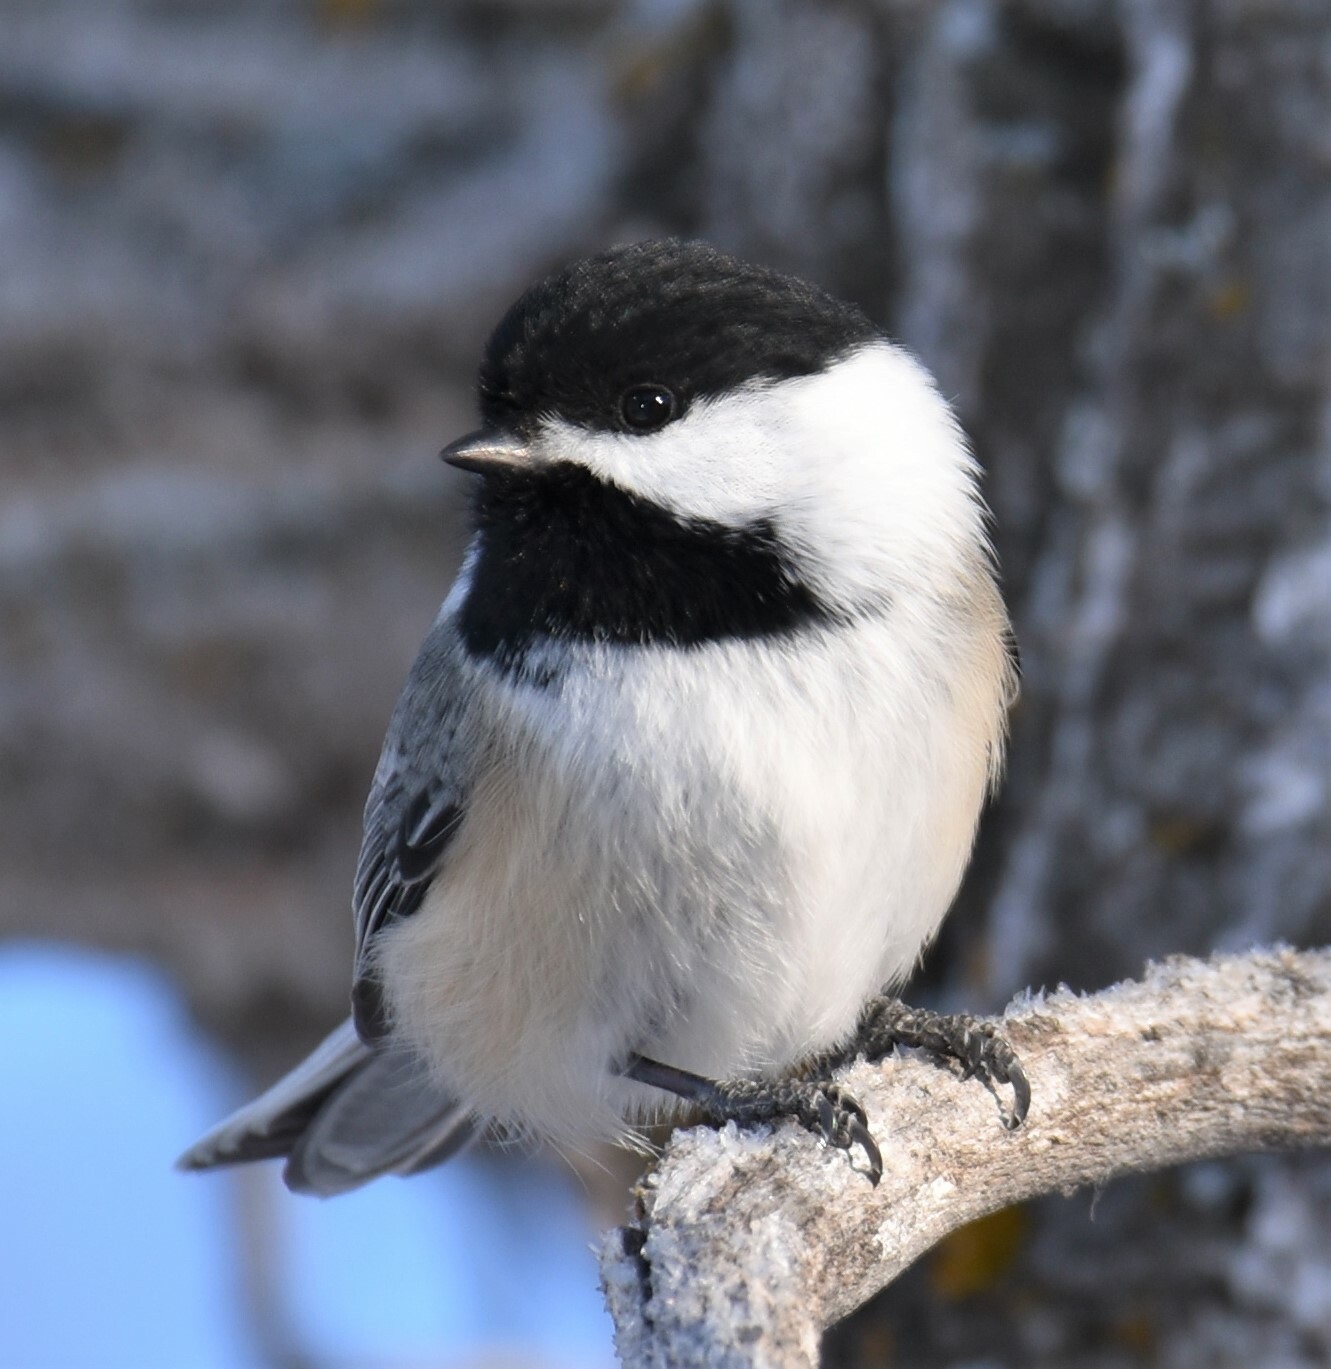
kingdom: Animalia
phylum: Chordata
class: Aves
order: Passeriformes
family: Paridae
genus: Poecile
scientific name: Poecile atricapillus
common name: Black-capped chickadee
